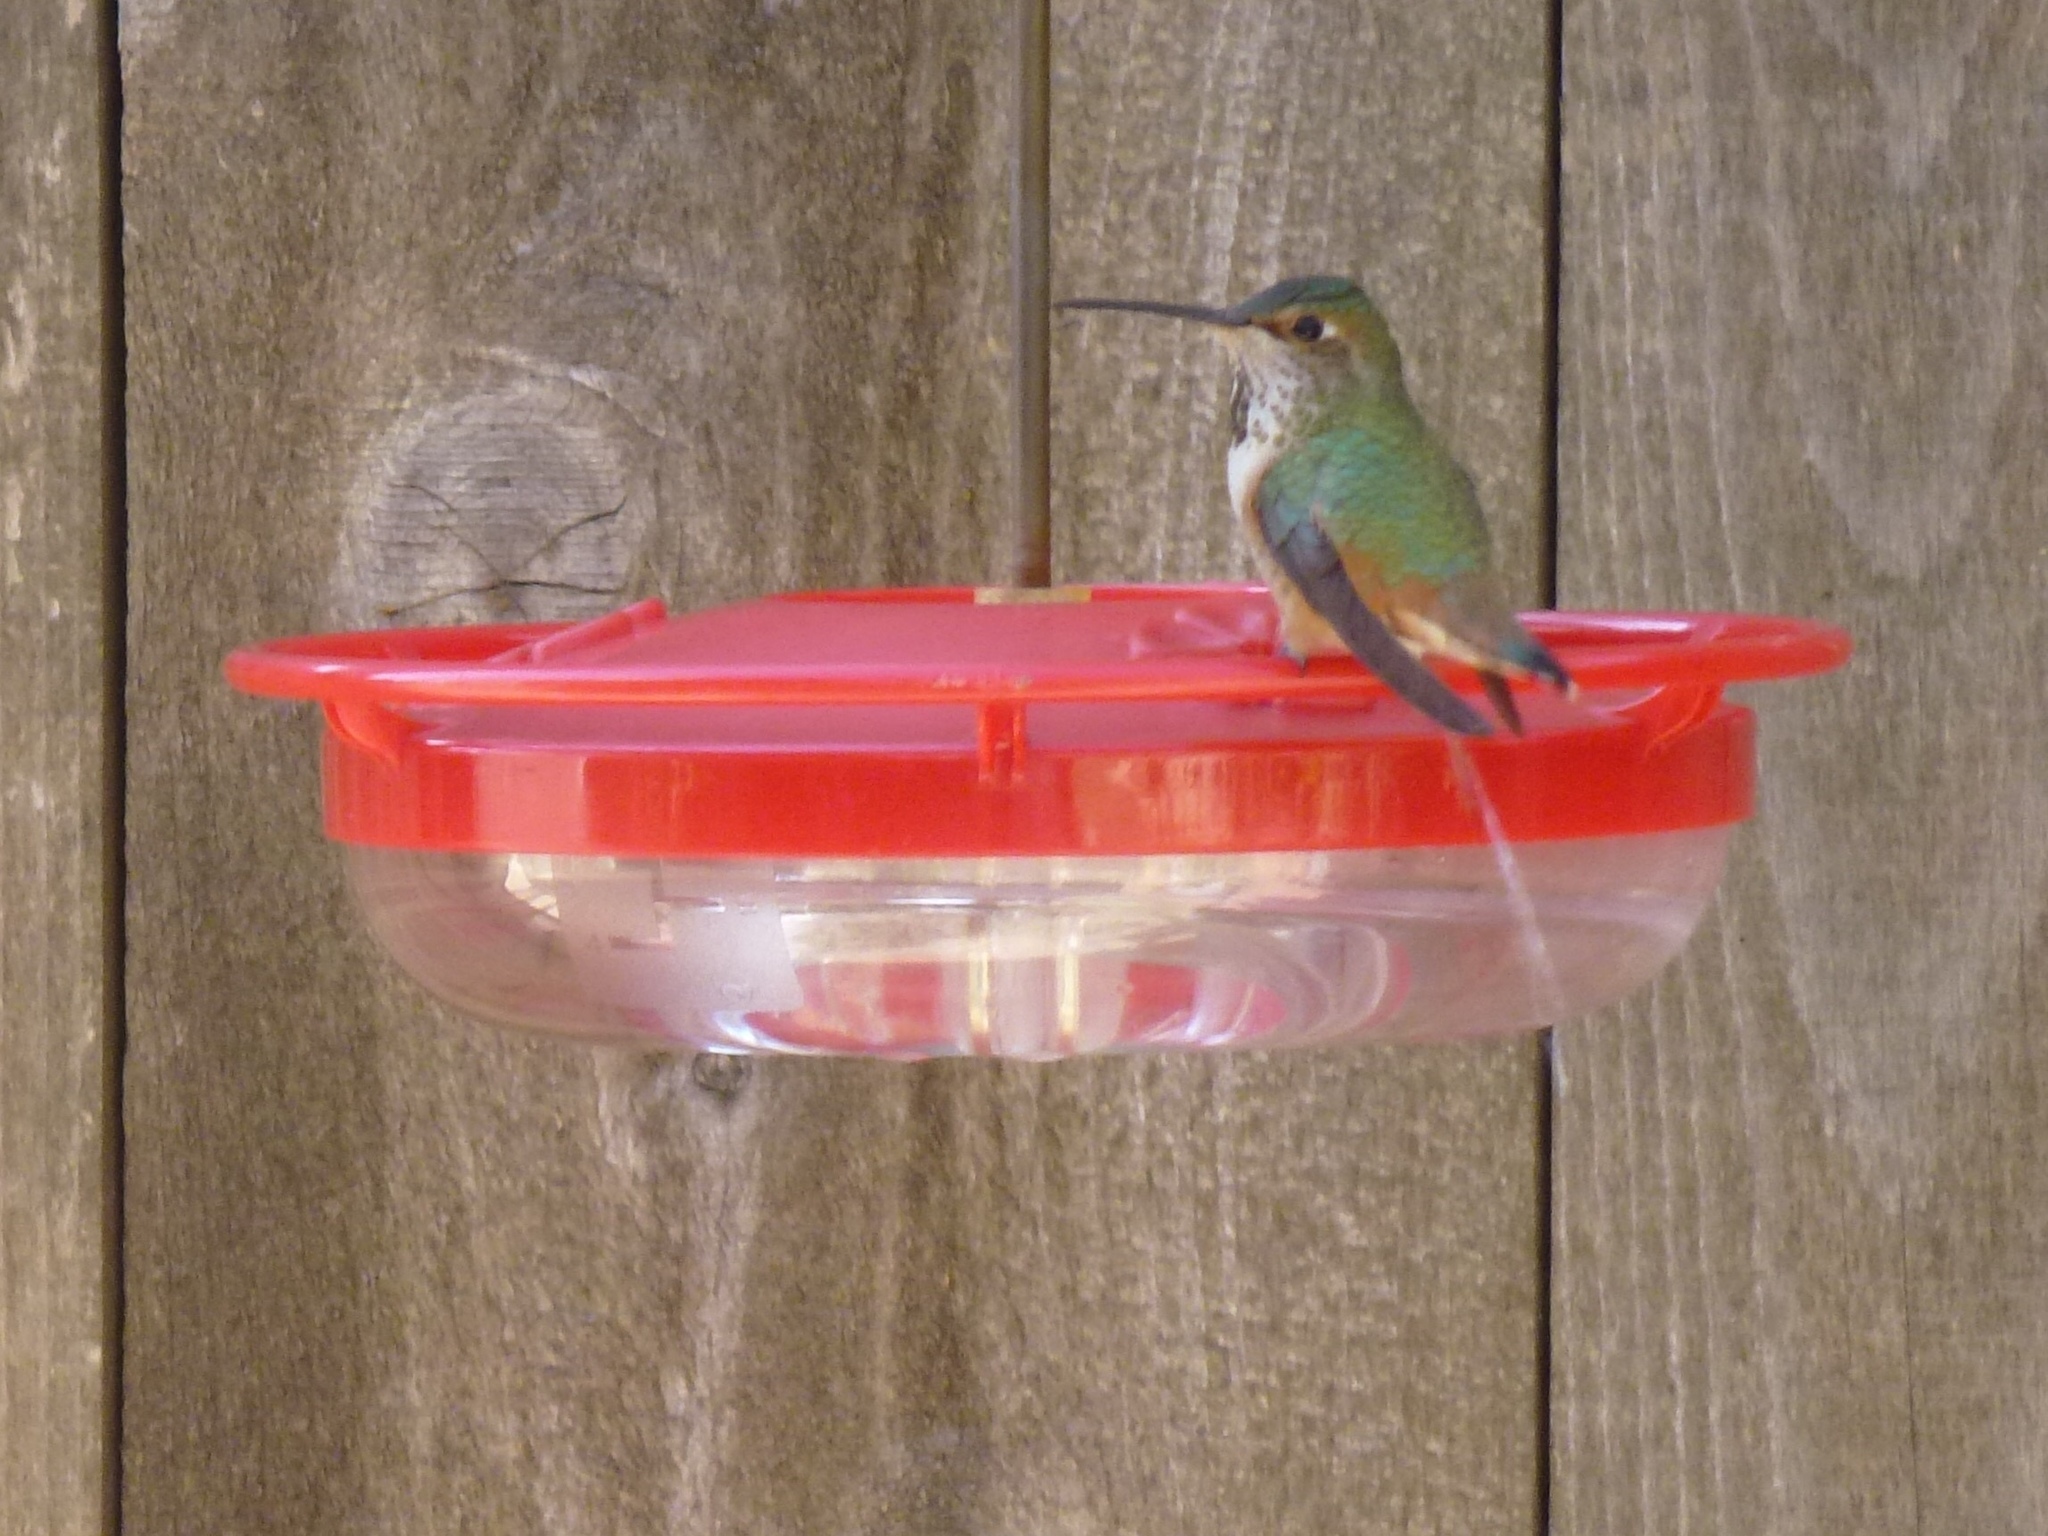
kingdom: Animalia
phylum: Chordata
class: Aves
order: Apodiformes
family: Trochilidae
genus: Selasphorus
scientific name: Selasphorus sasin
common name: Allen's hummingbird
